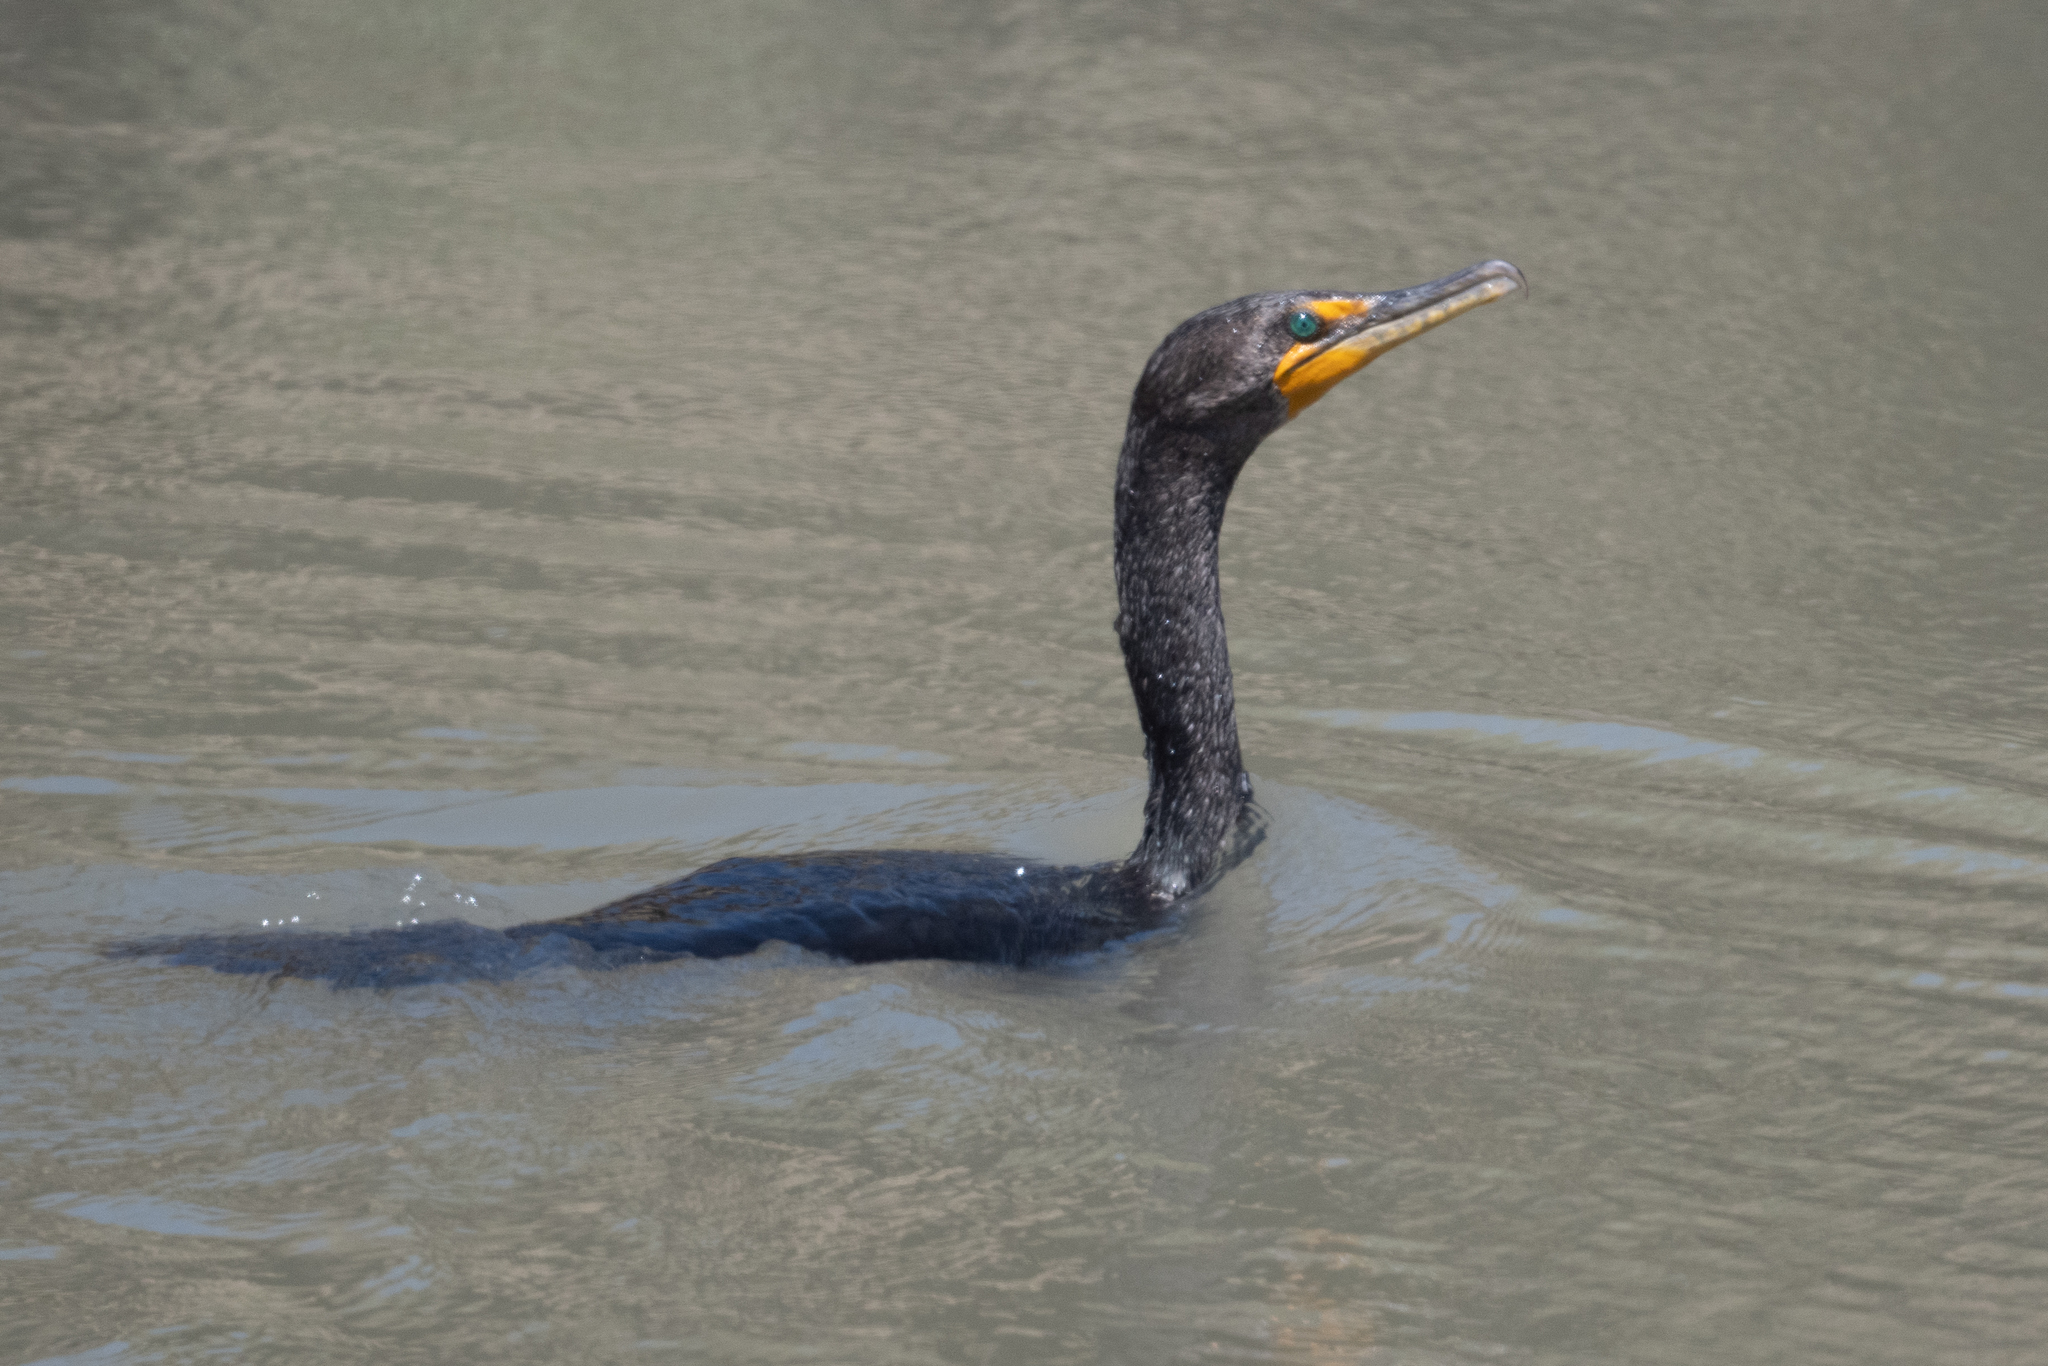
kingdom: Animalia
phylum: Chordata
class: Aves
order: Suliformes
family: Phalacrocoracidae
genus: Phalacrocorax
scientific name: Phalacrocorax auritus
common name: Double-crested cormorant
